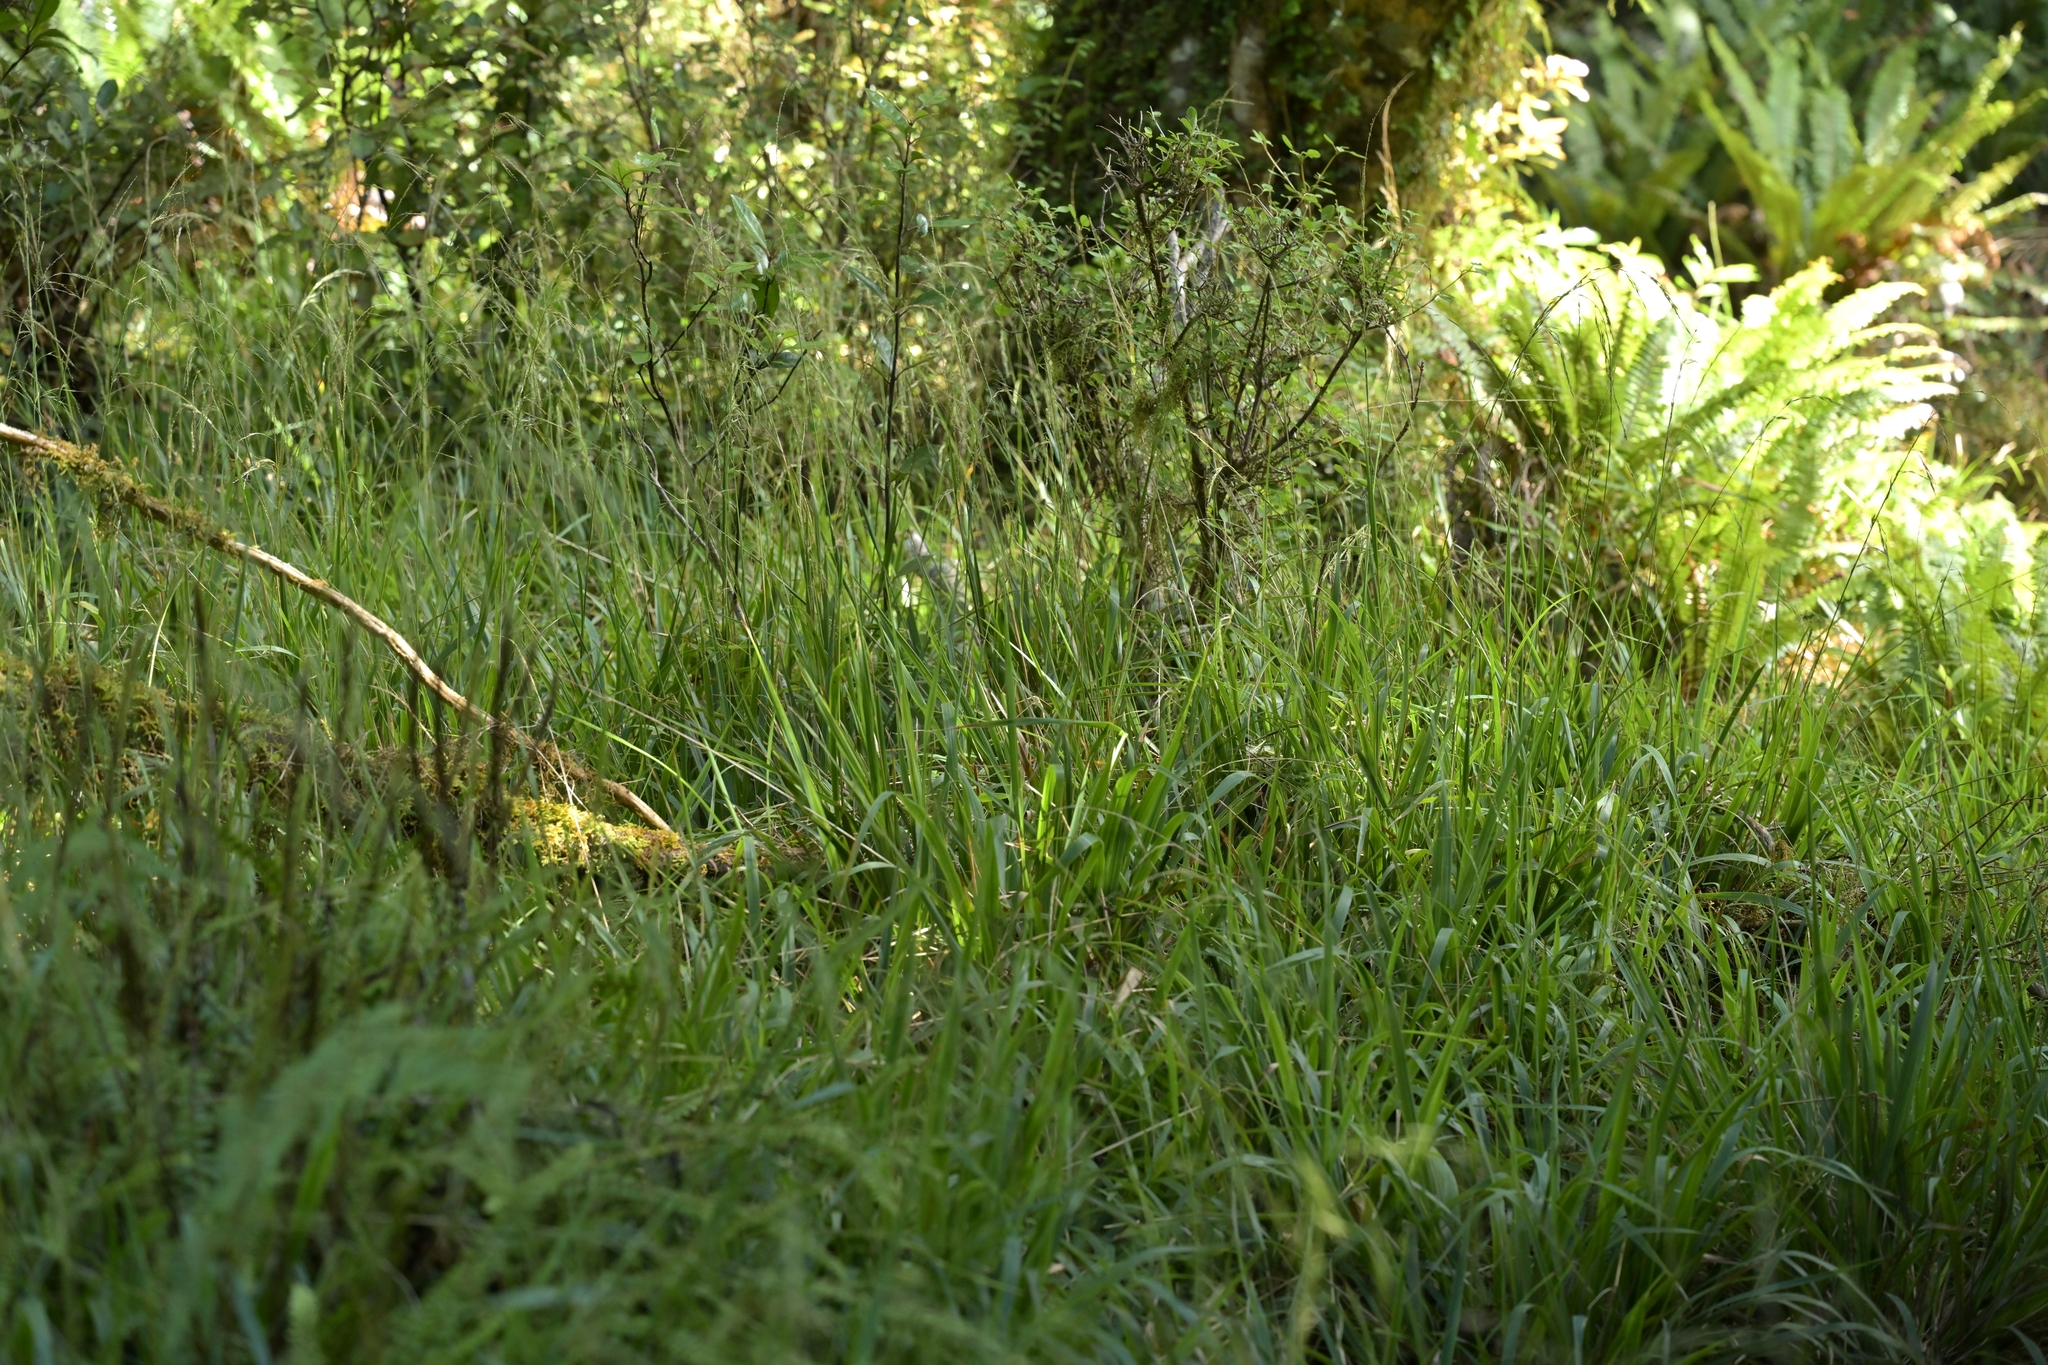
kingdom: Plantae
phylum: Tracheophyta
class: Liliopsida
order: Poales
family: Poaceae
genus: Ehrharta
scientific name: Ehrharta diplax
